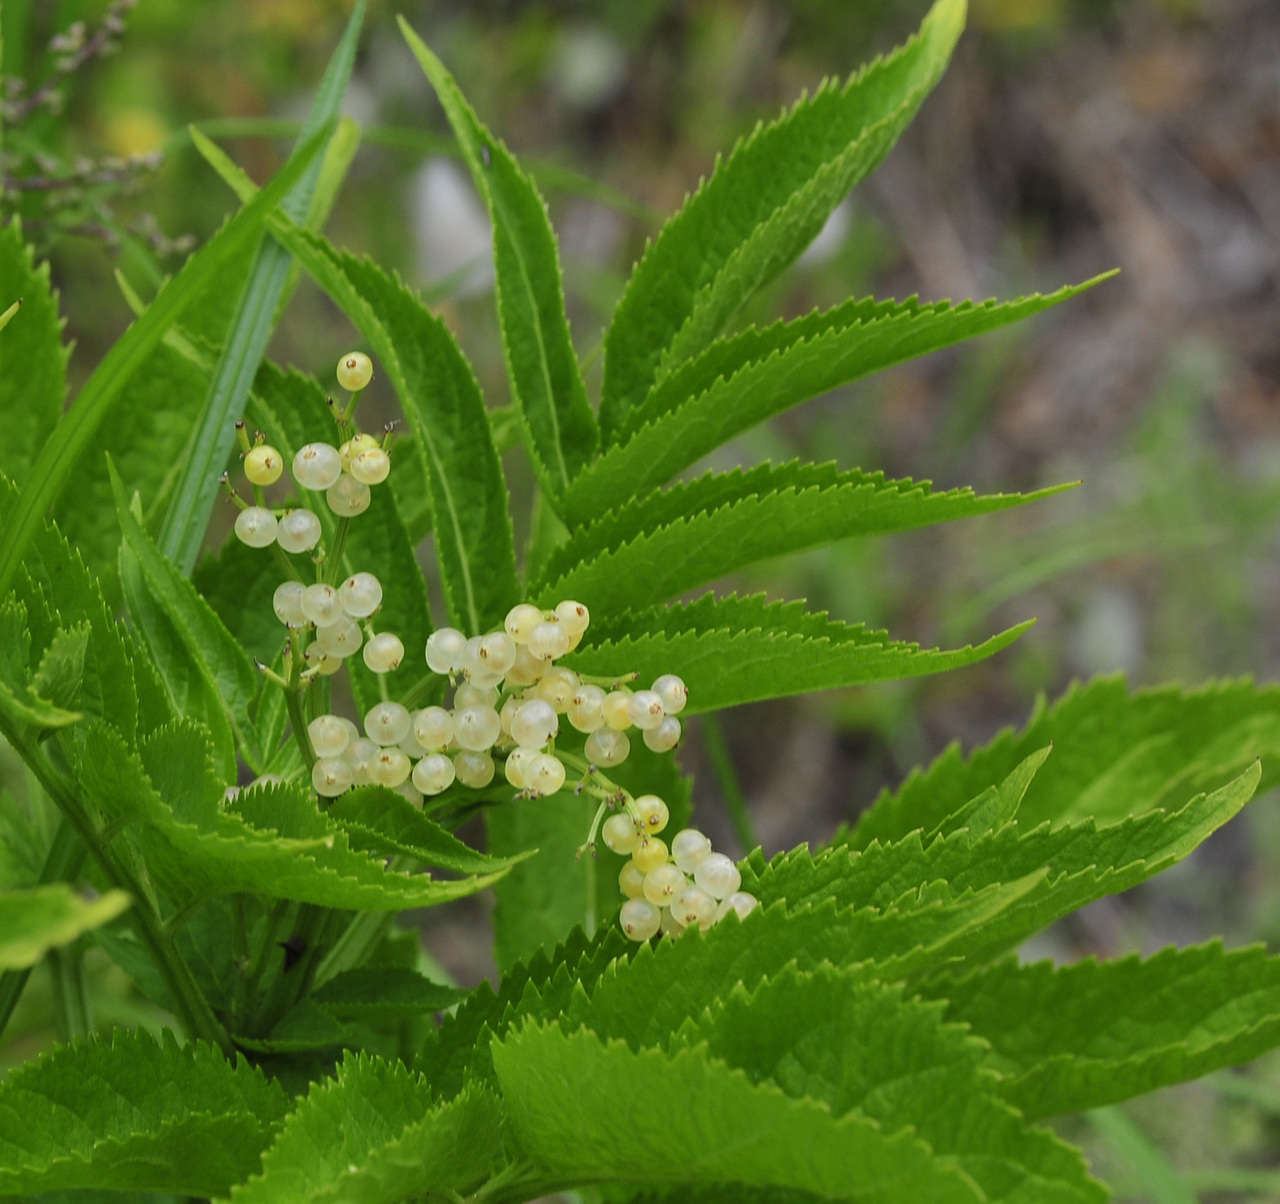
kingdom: Plantae
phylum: Tracheophyta
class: Magnoliopsida
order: Dipsacales
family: Viburnaceae
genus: Sambucus
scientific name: Sambucus gaudichaudiana
